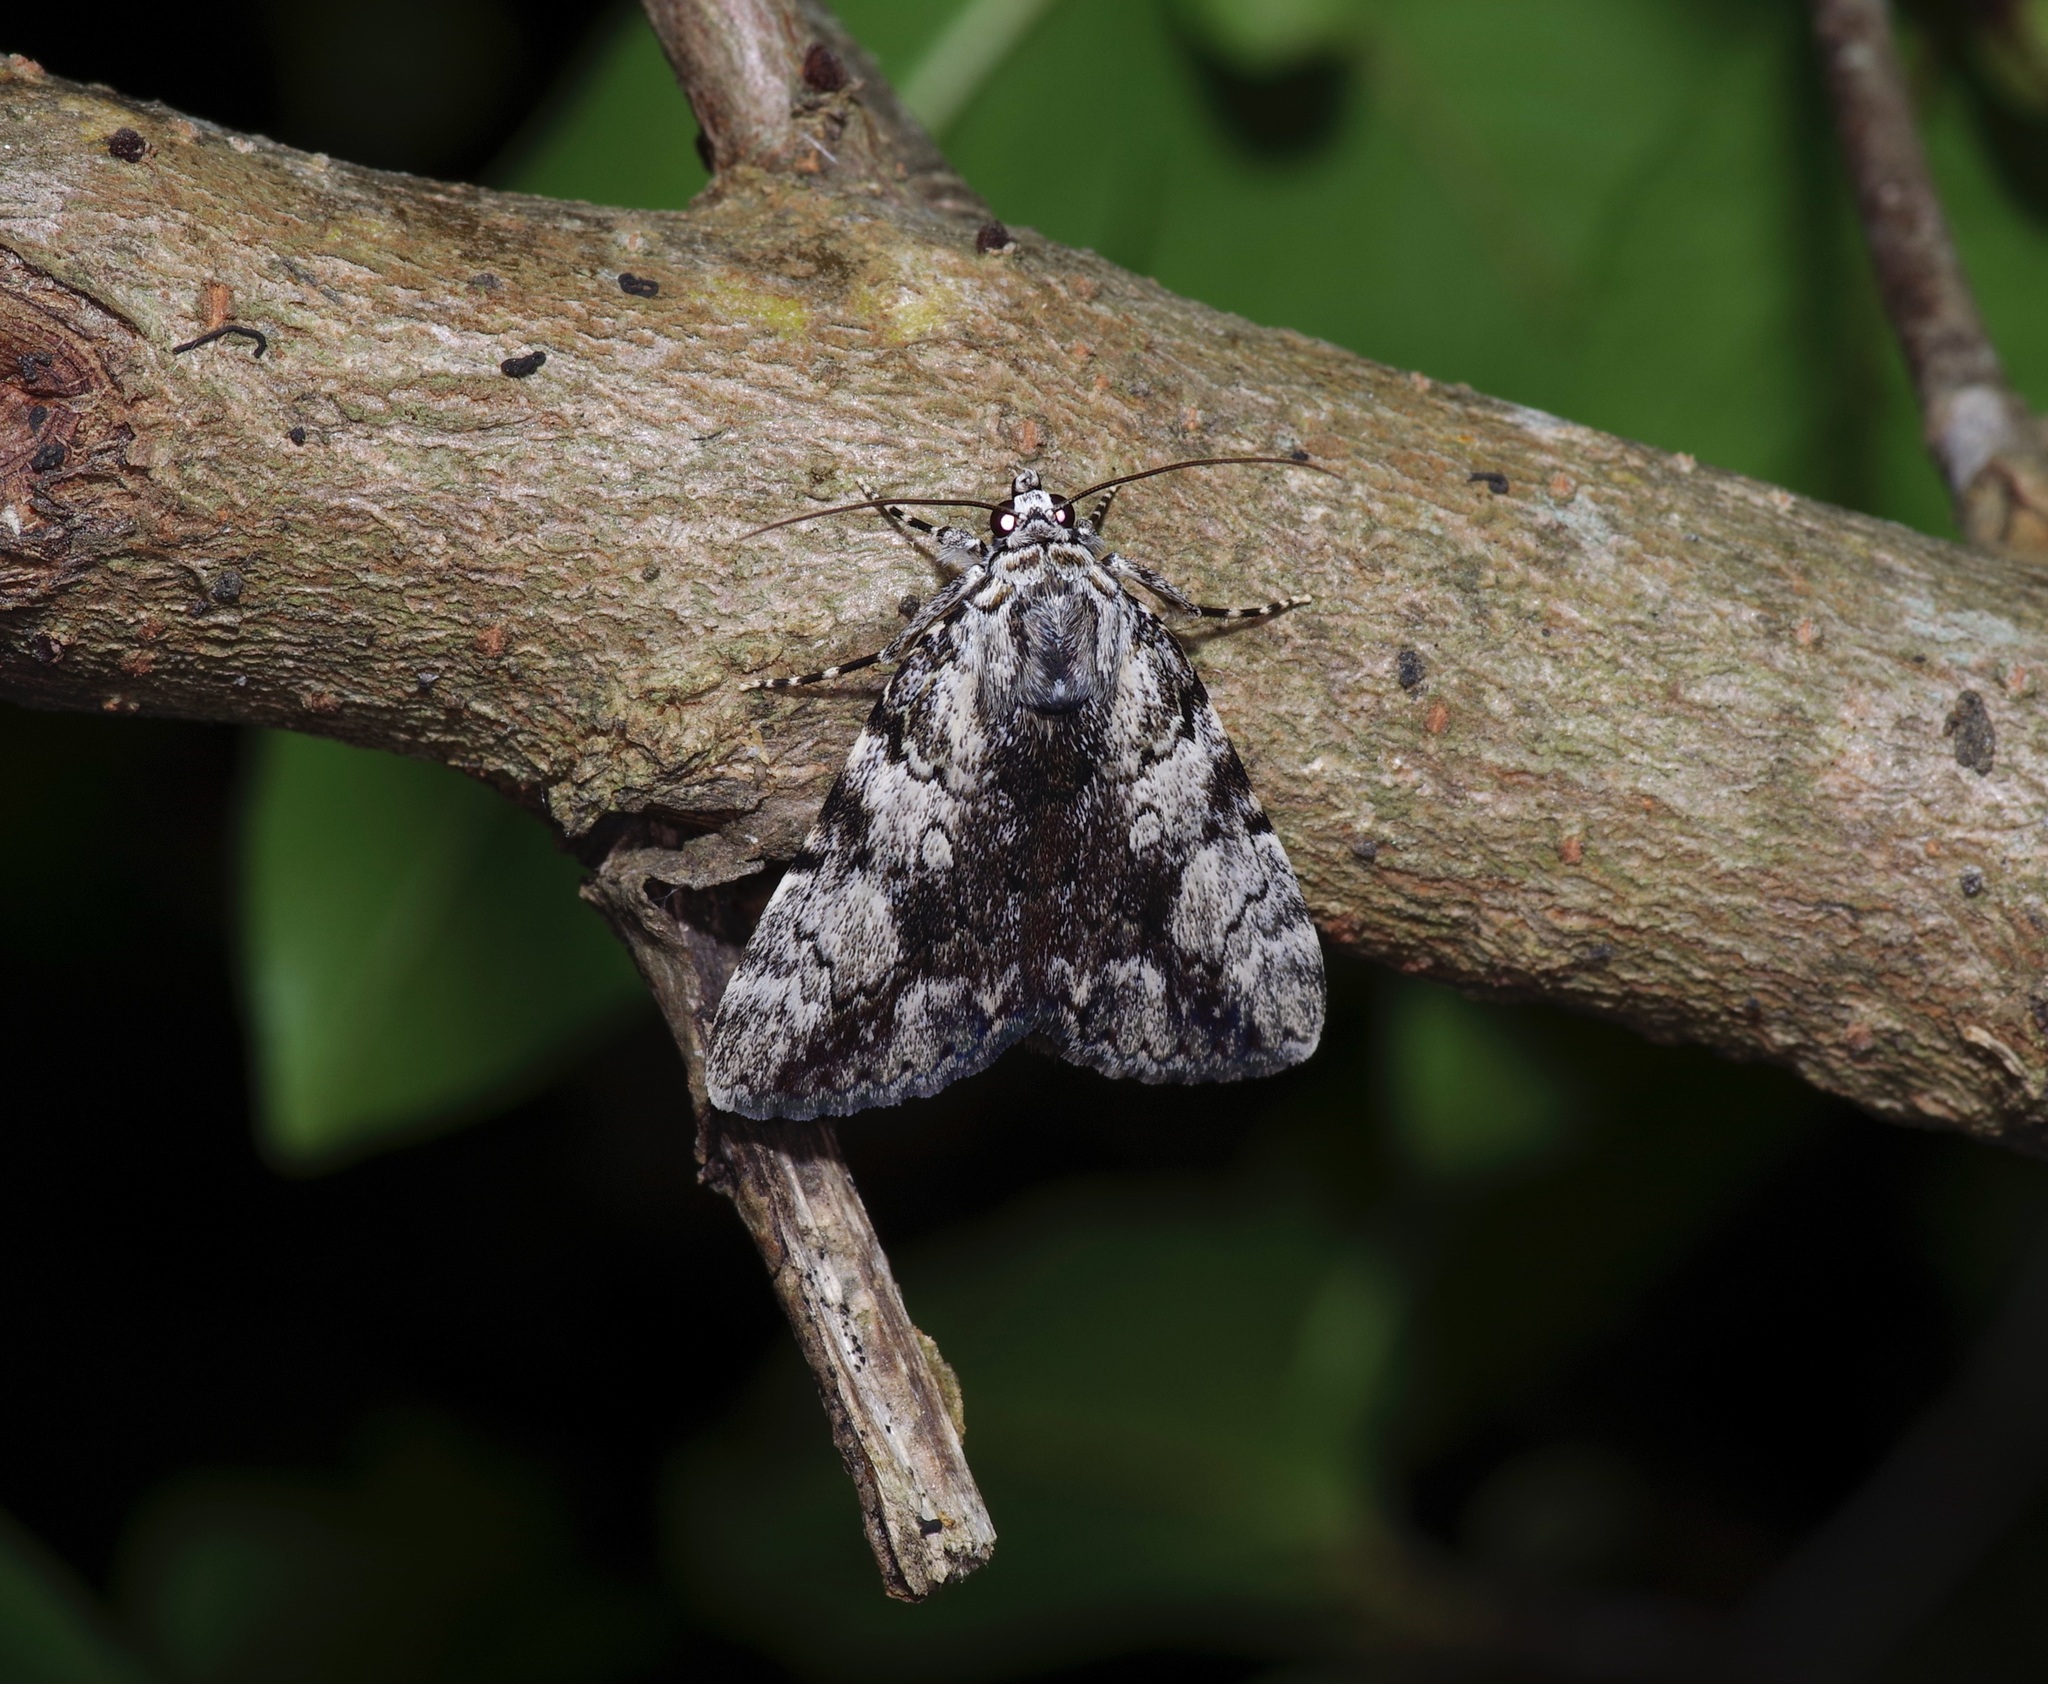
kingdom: Animalia
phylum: Arthropoda
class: Insecta
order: Lepidoptera
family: Erebidae
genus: Catocala
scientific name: Catocala amica
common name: Girlfriend underwing
